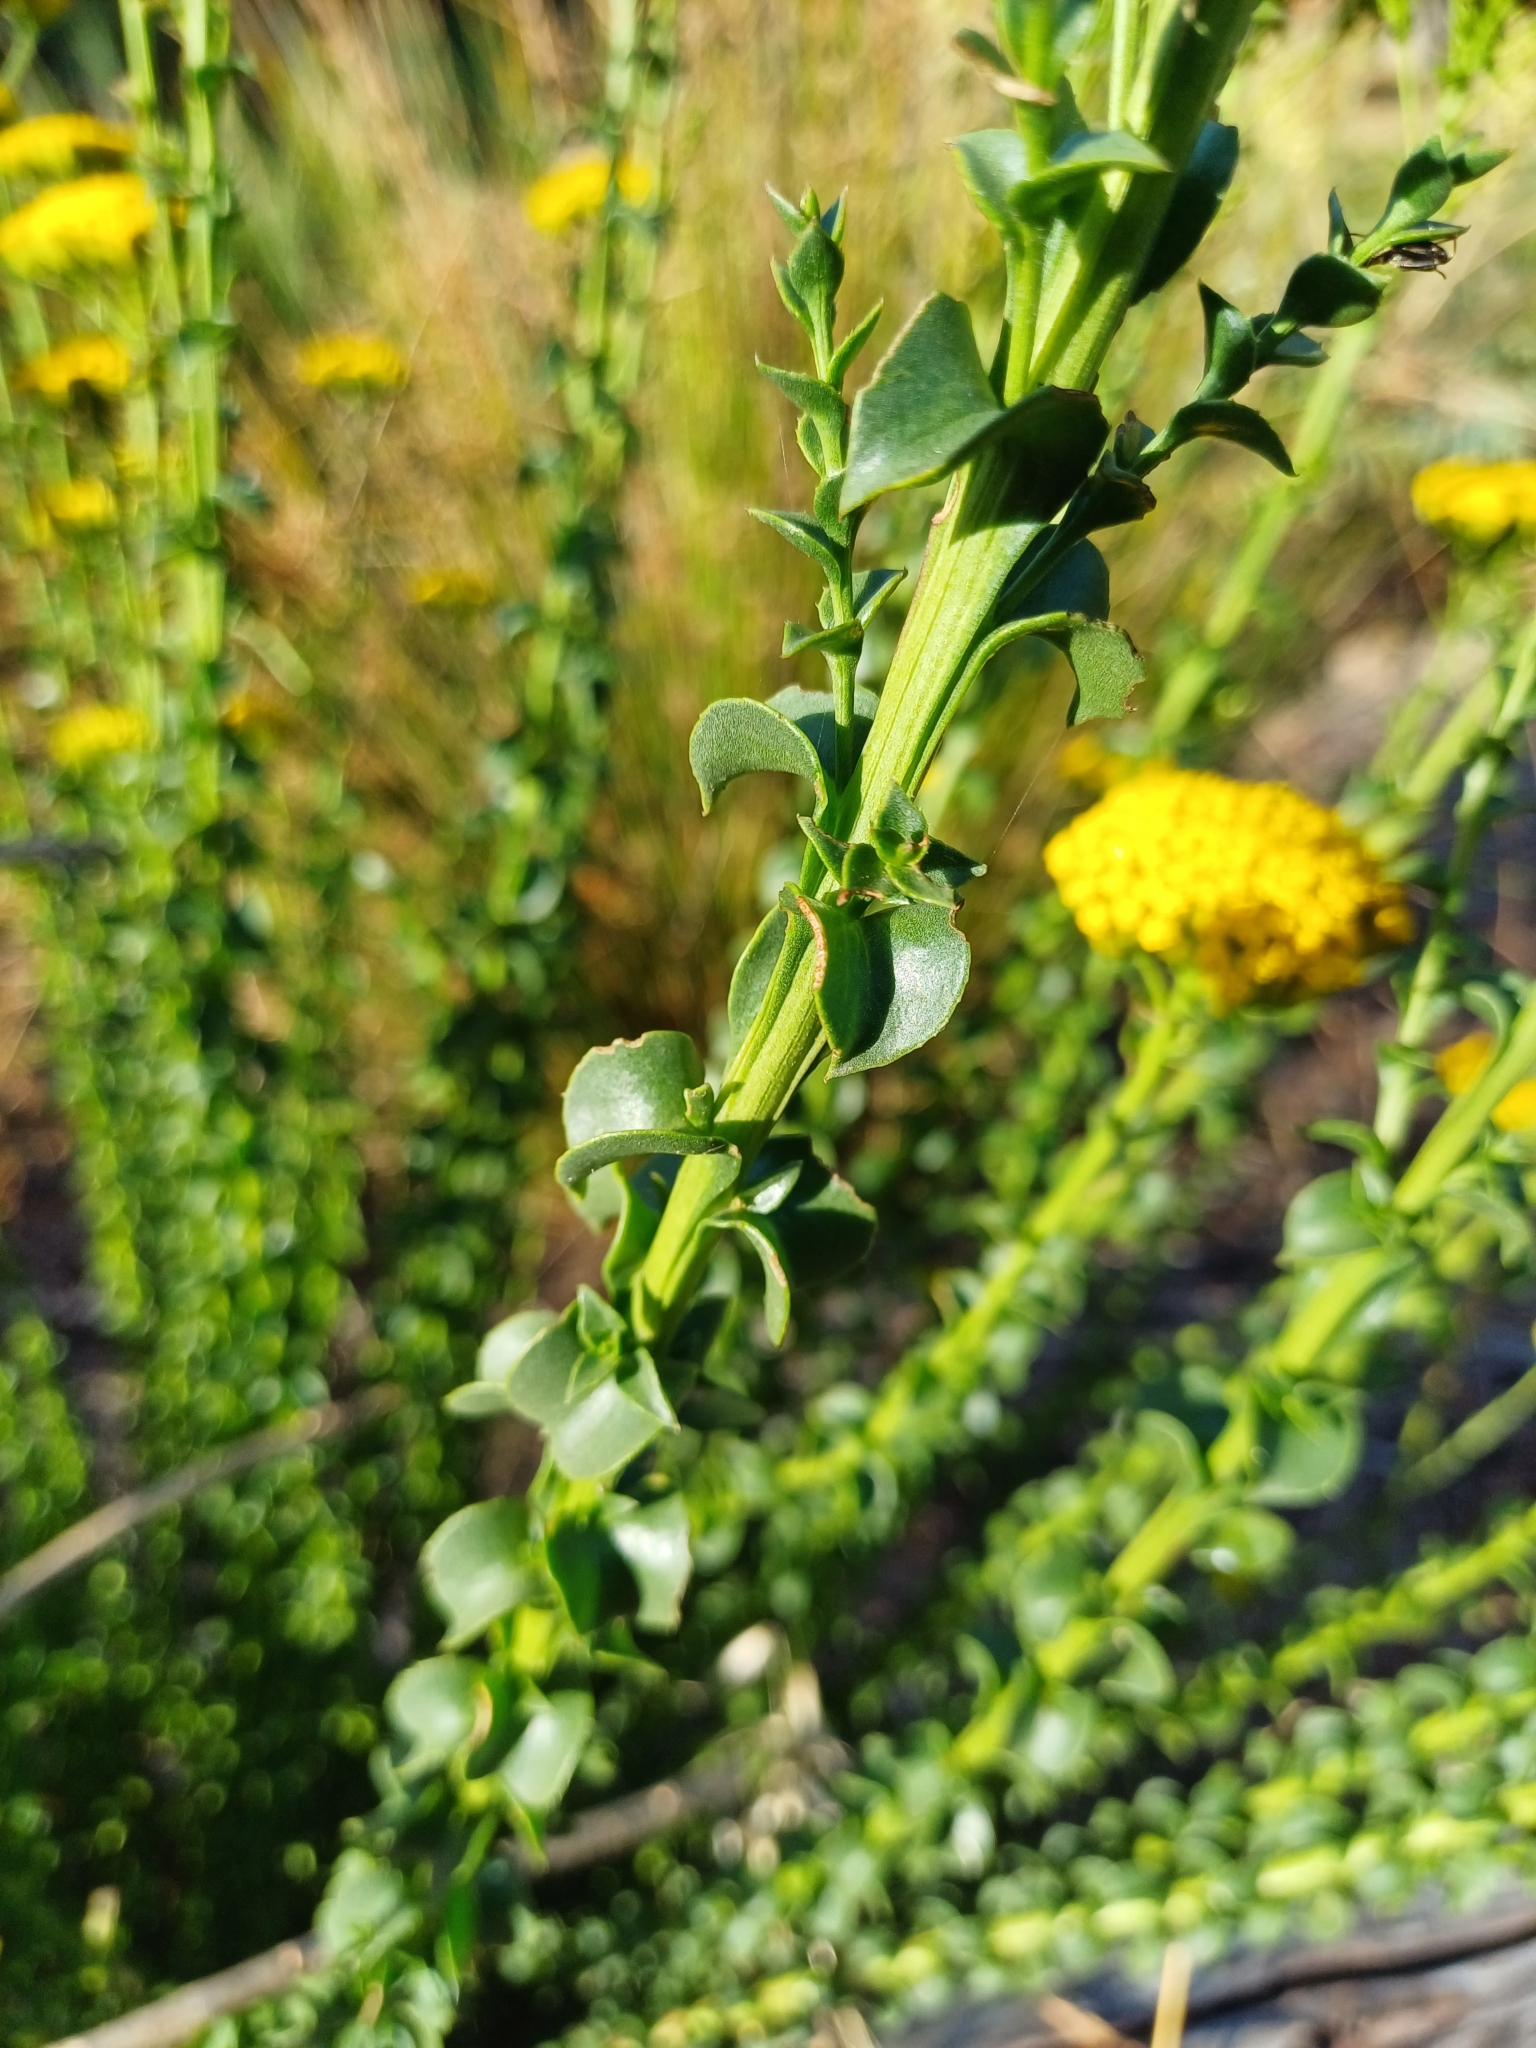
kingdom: Plantae
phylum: Tracheophyta
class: Magnoliopsida
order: Asterales
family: Asteraceae
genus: Athanasia
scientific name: Athanasia dentata
